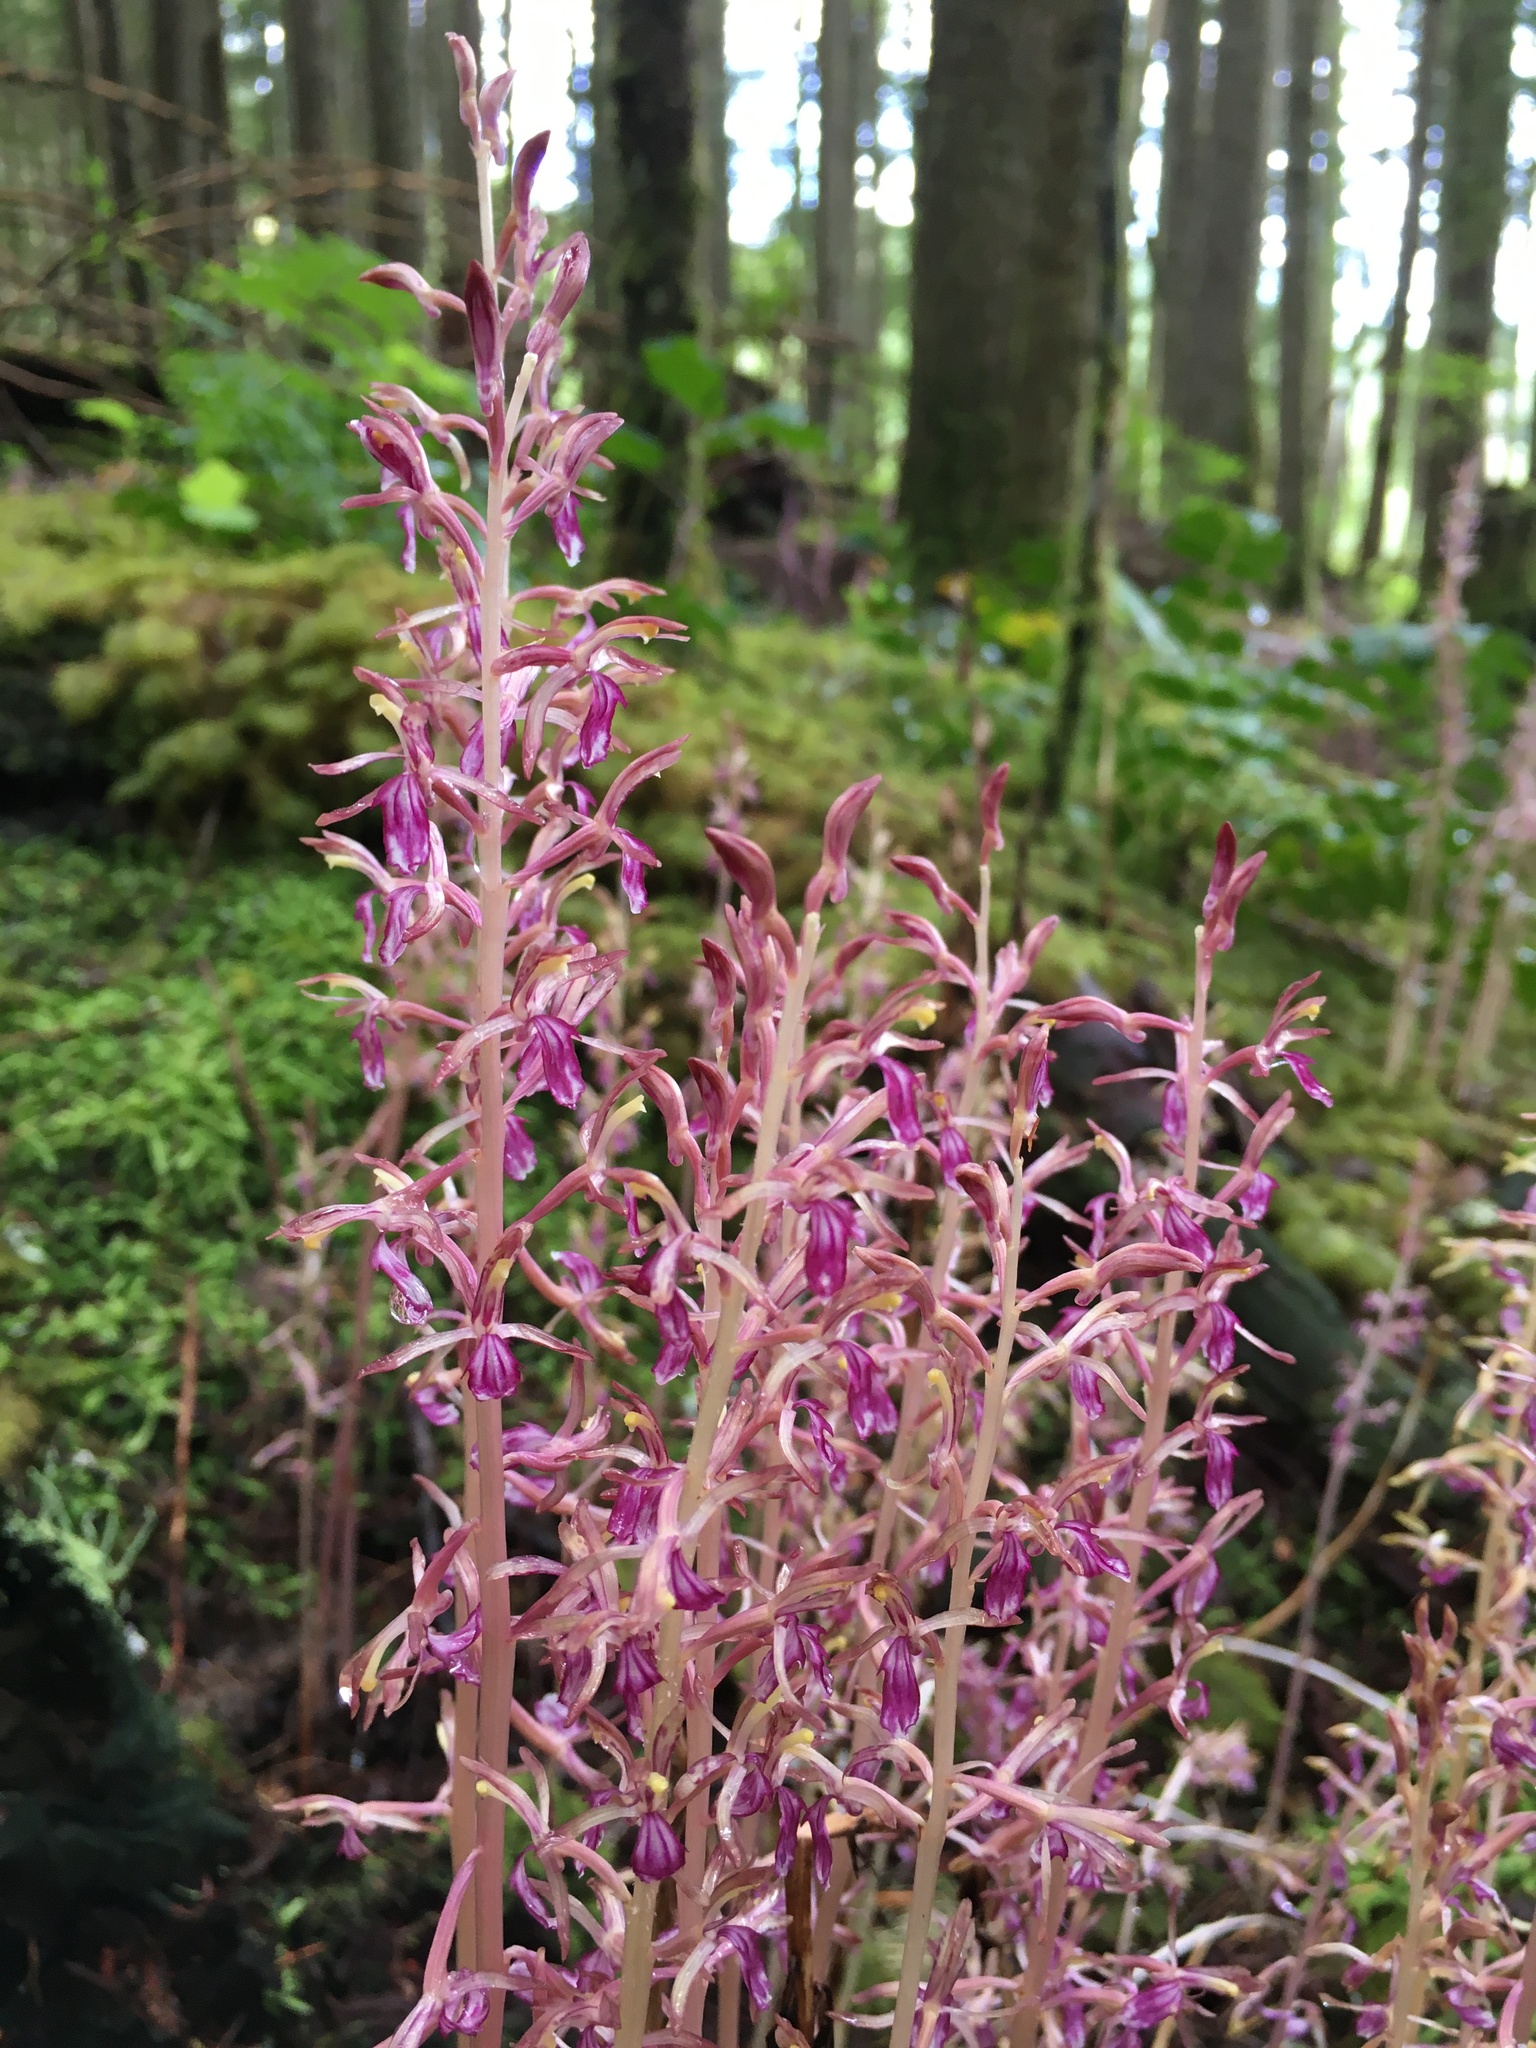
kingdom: Plantae
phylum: Tracheophyta
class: Liliopsida
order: Asparagales
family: Orchidaceae
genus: Corallorhiza
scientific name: Corallorhiza mertensiana
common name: Pacific coralroot
